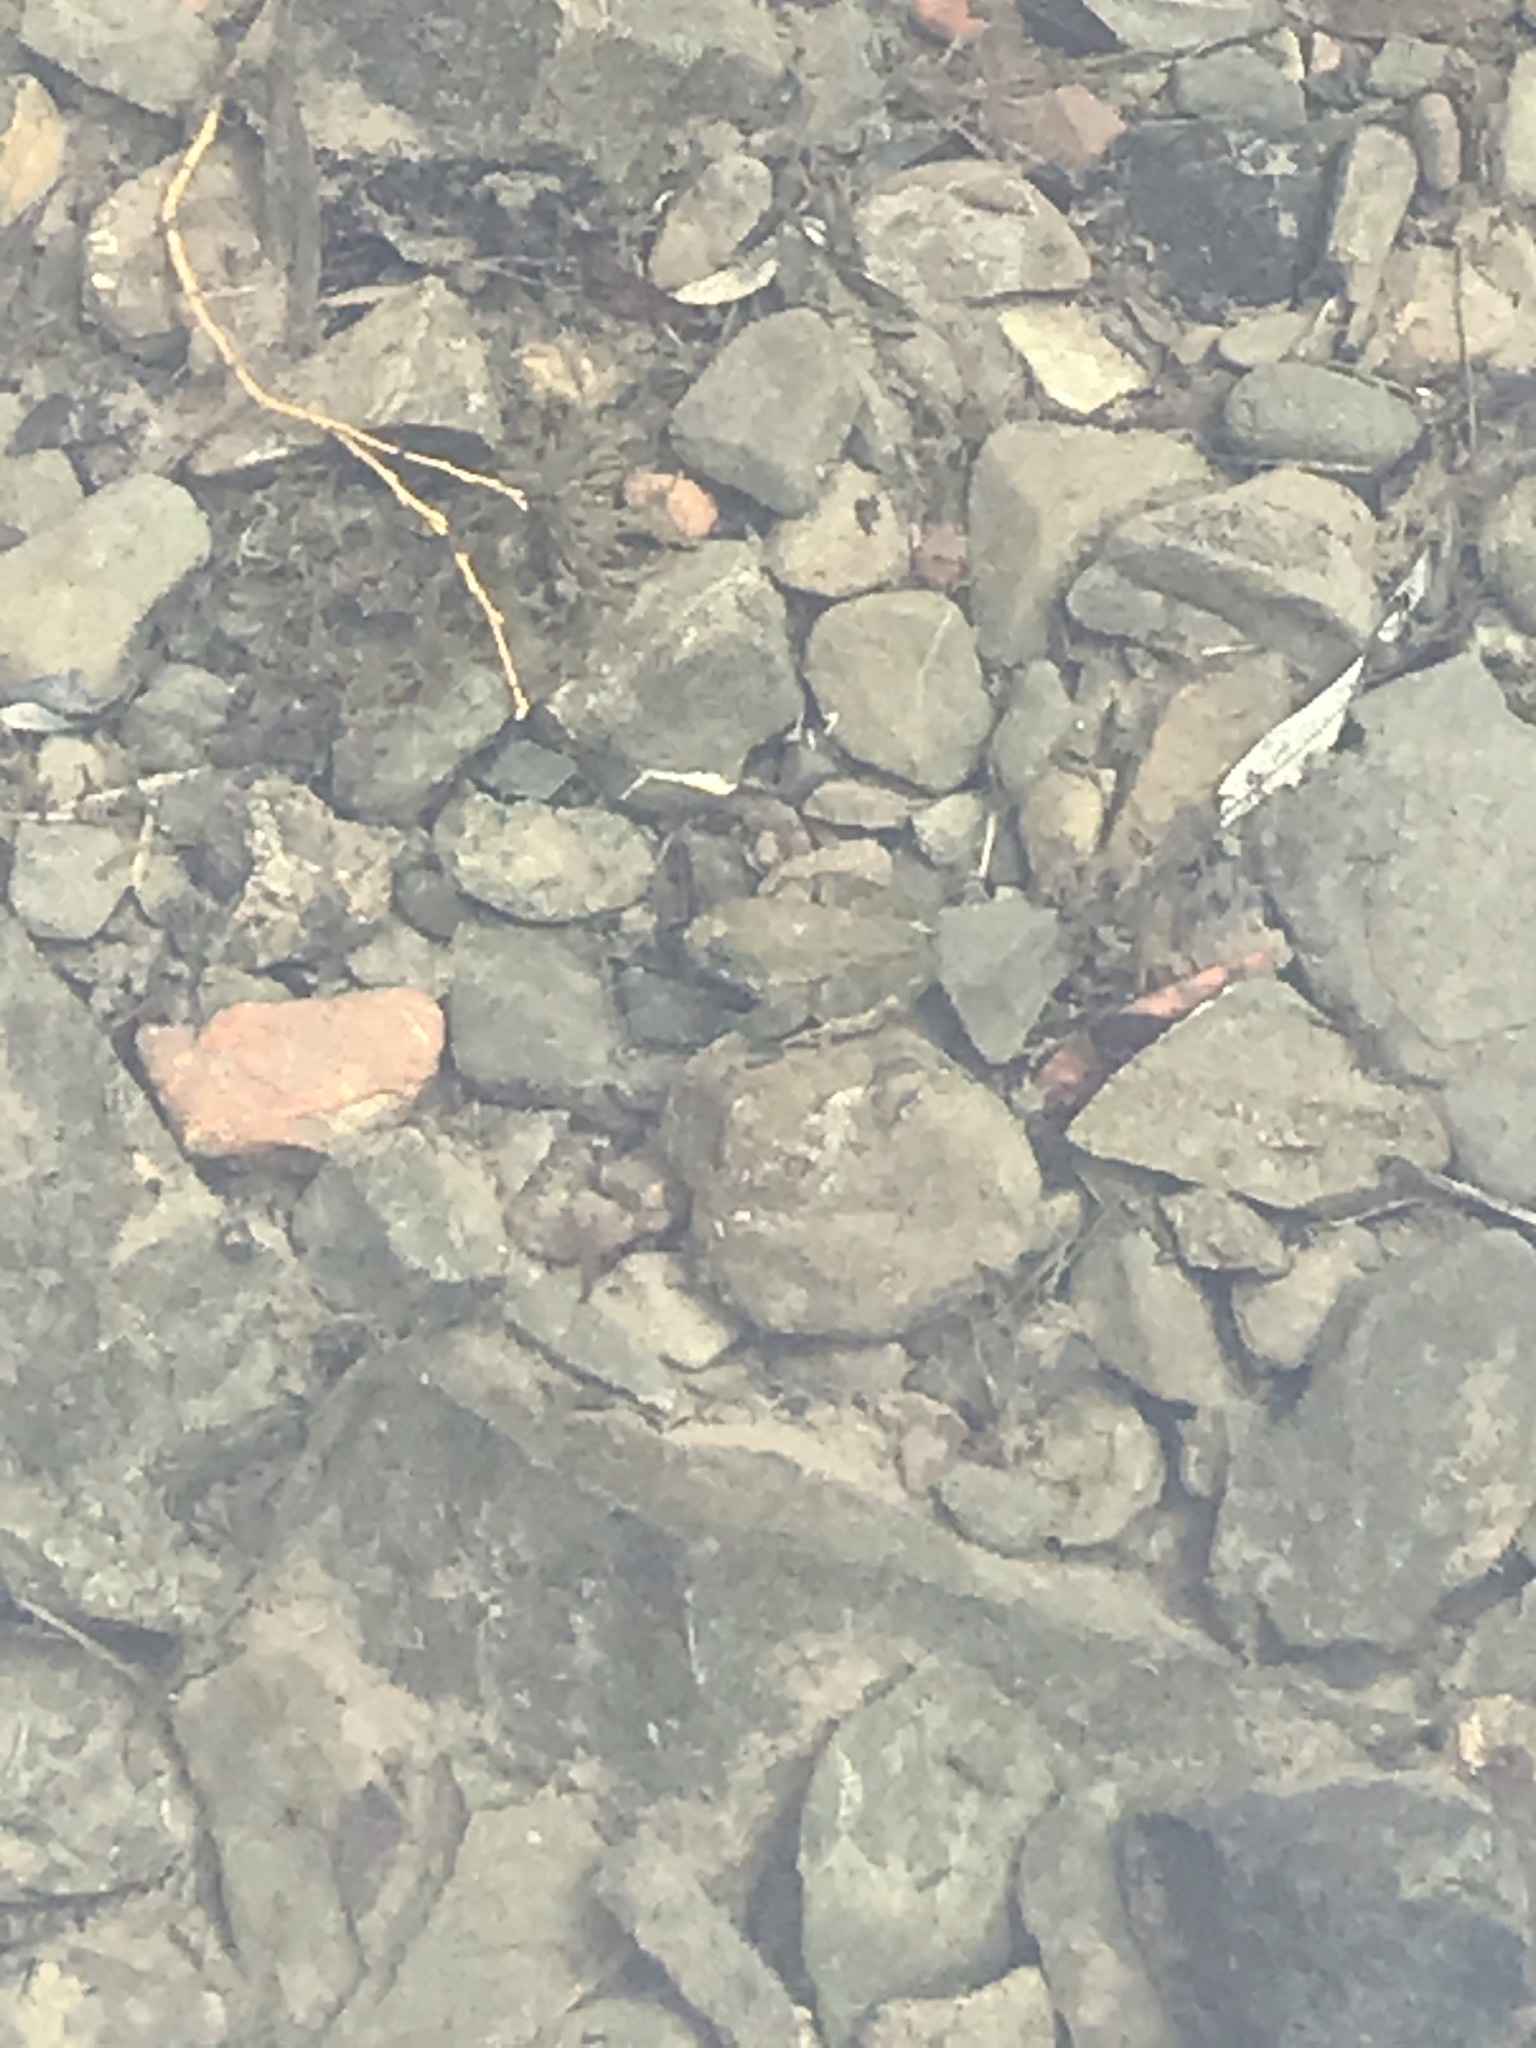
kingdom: Animalia
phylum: Chordata
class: Amphibia
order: Anura
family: Ranidae
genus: Rana
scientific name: Rana boylii
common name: Foothill yellow-legged frog
